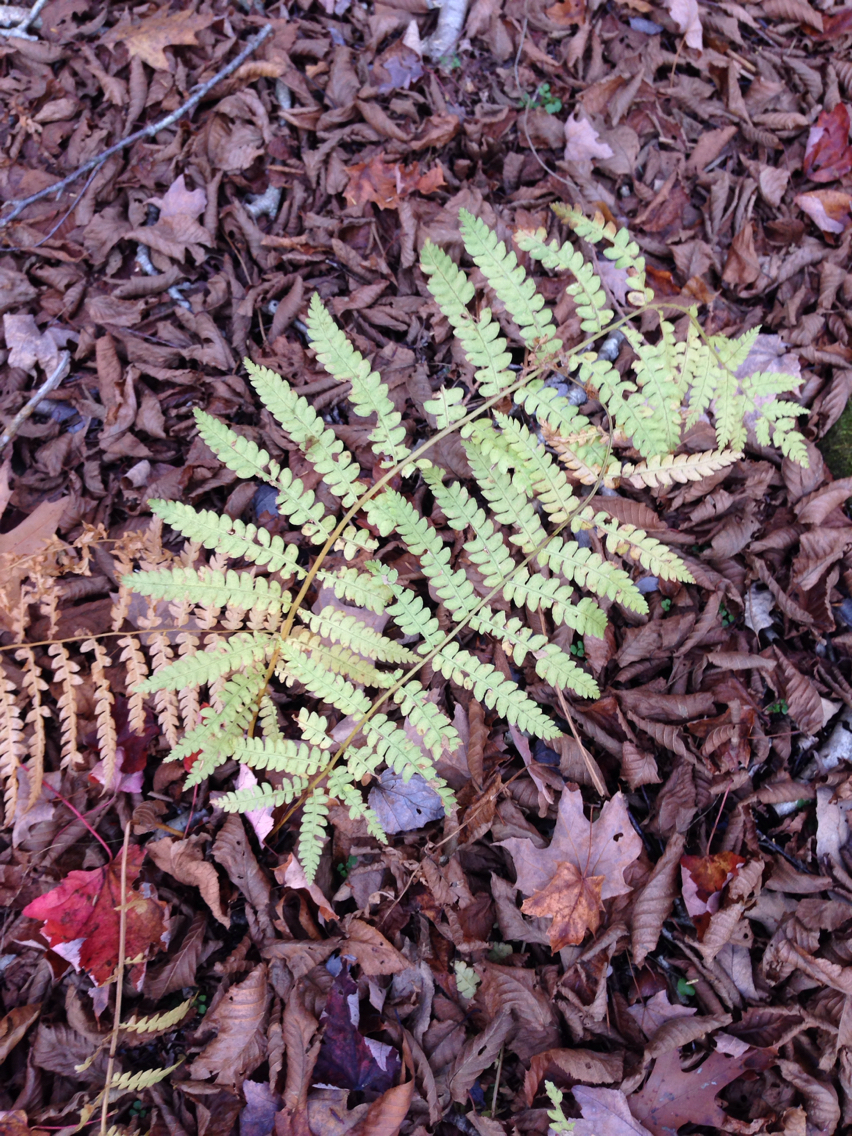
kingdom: Plantae
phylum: Tracheophyta
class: Polypodiopsida
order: Osmundales
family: Osmundaceae
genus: Claytosmunda
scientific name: Claytosmunda claytoniana
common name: Clayton's fern
